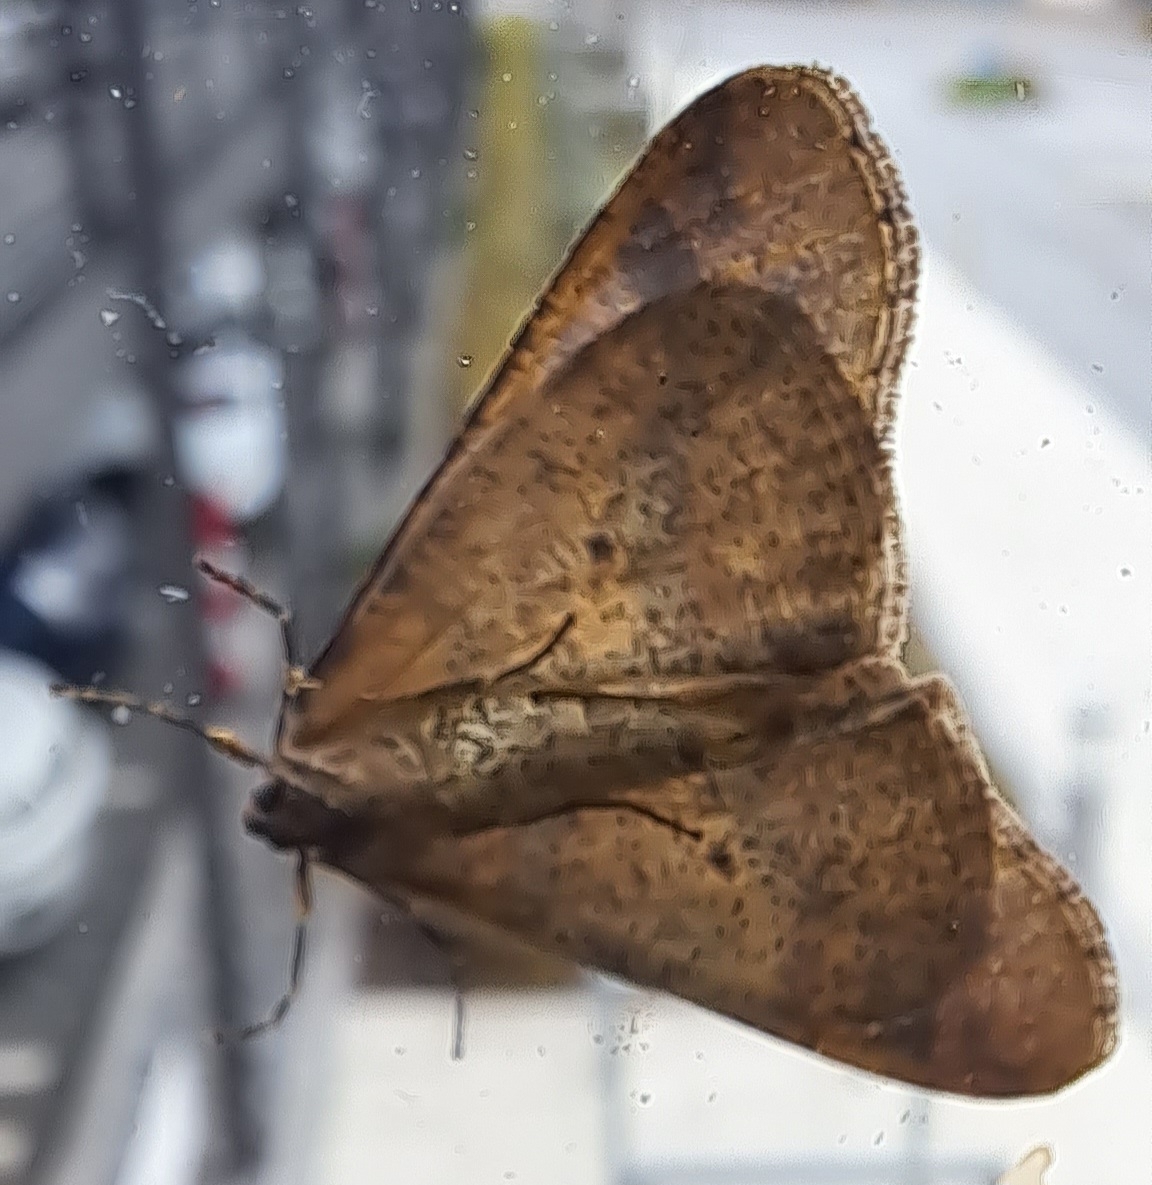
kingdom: Animalia
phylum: Arthropoda
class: Insecta
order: Lepidoptera
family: Geometridae
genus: Erannis
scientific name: Erannis defoliaria
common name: Mottled umber
